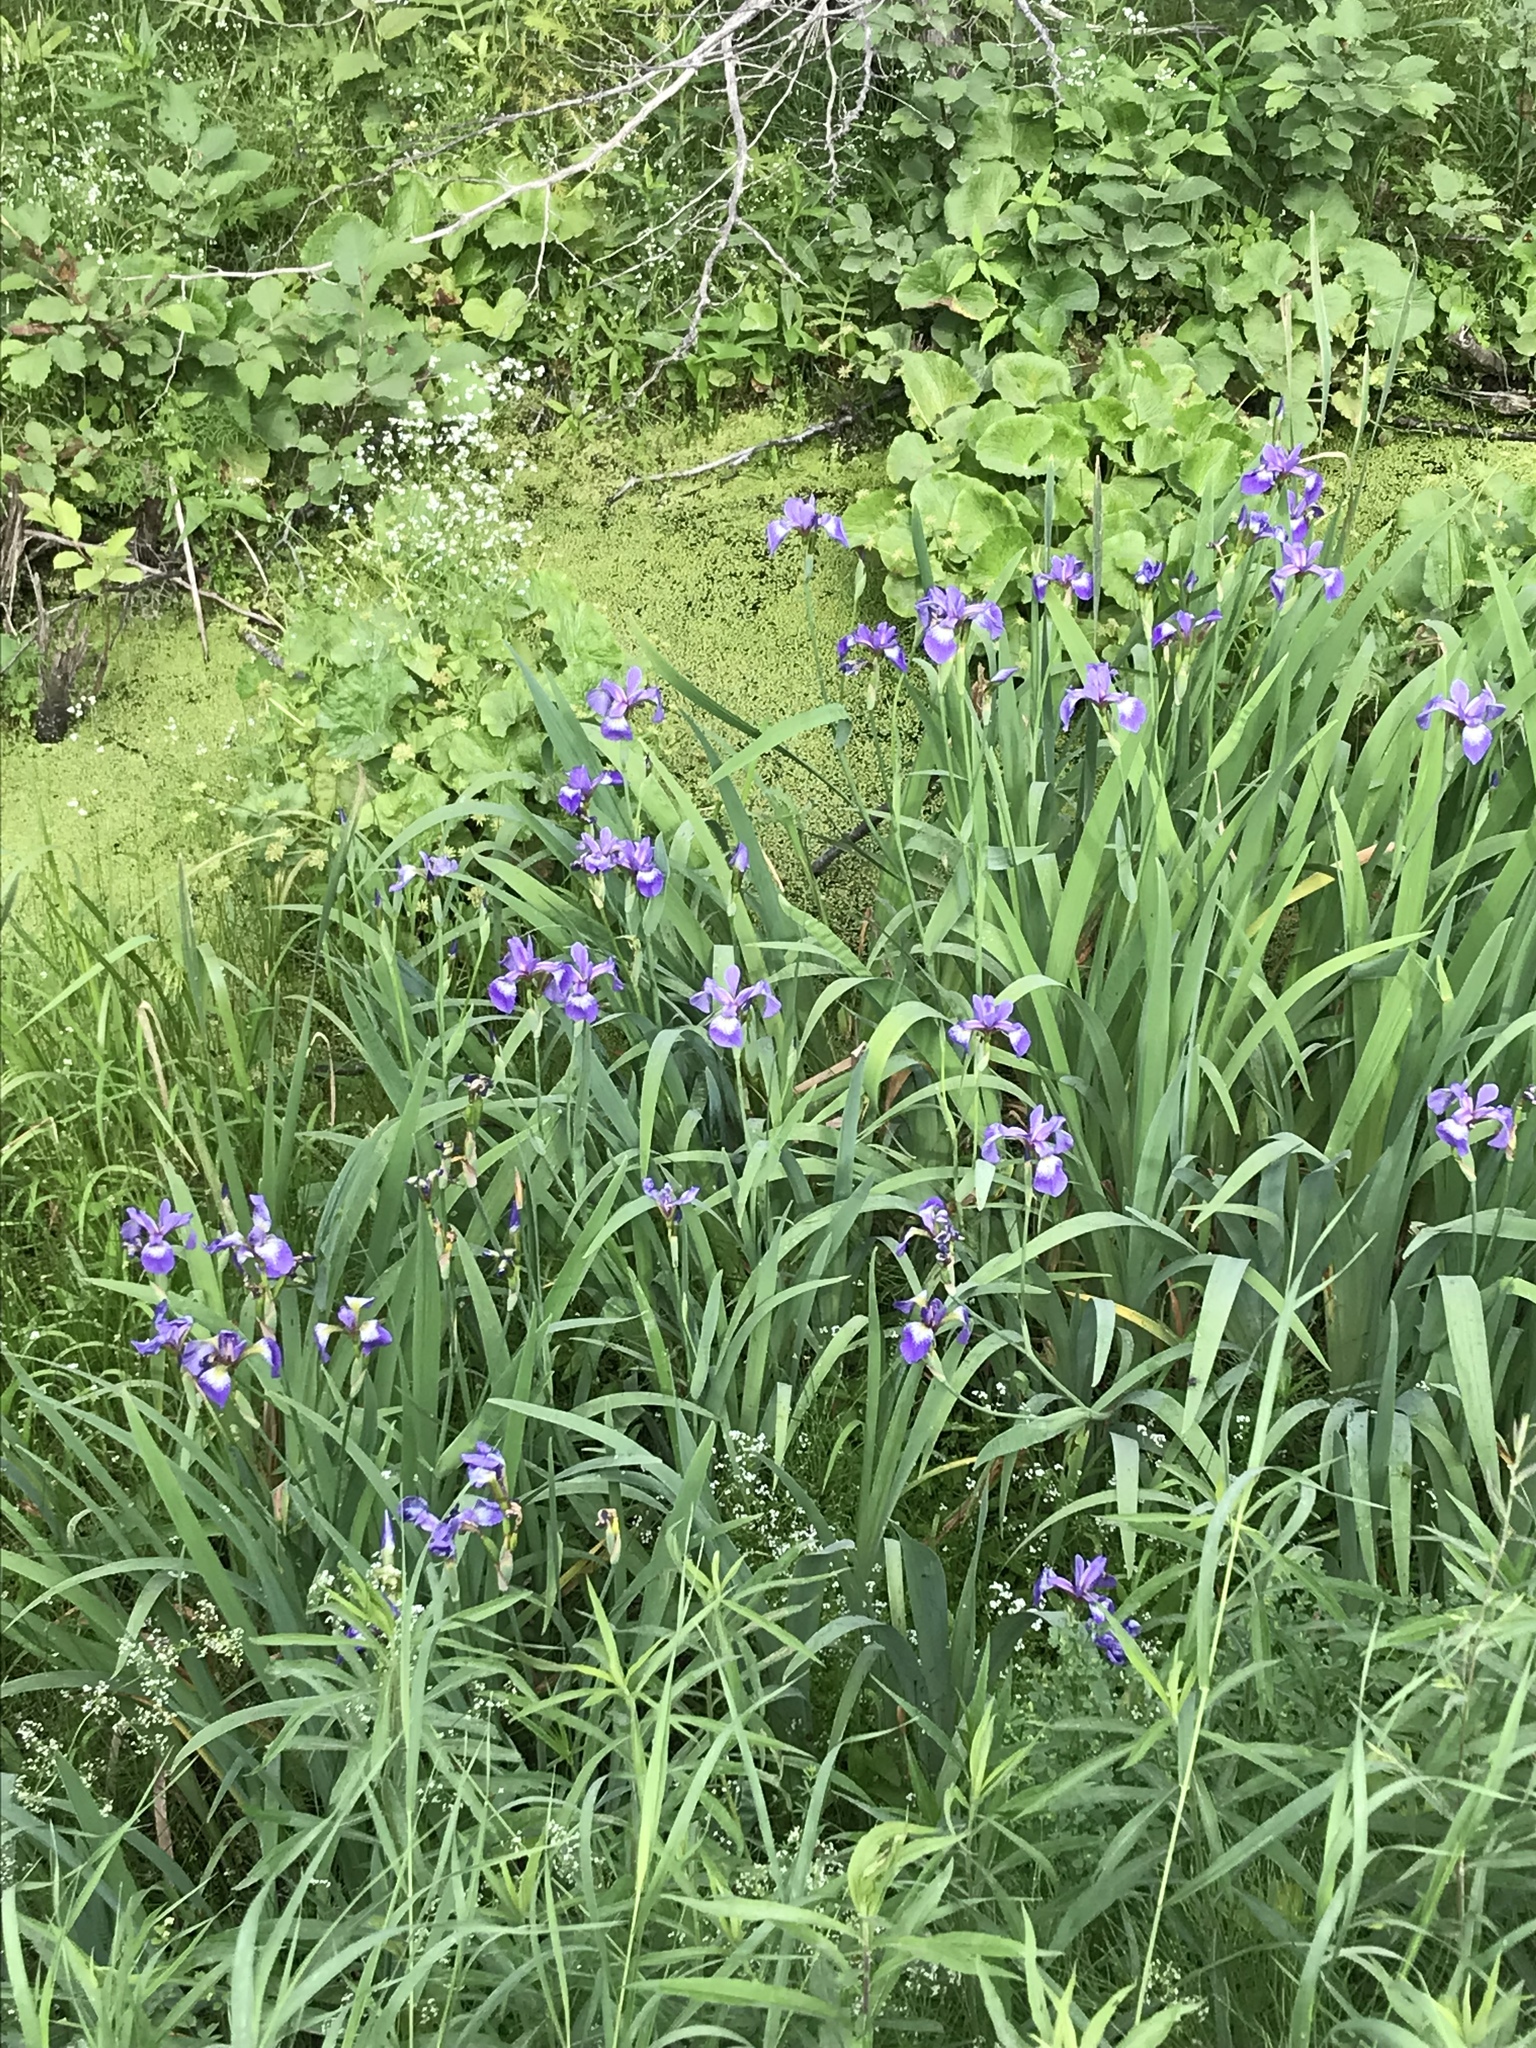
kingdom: Plantae
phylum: Tracheophyta
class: Liliopsida
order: Asparagales
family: Iridaceae
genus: Iris
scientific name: Iris versicolor
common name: Purple iris
